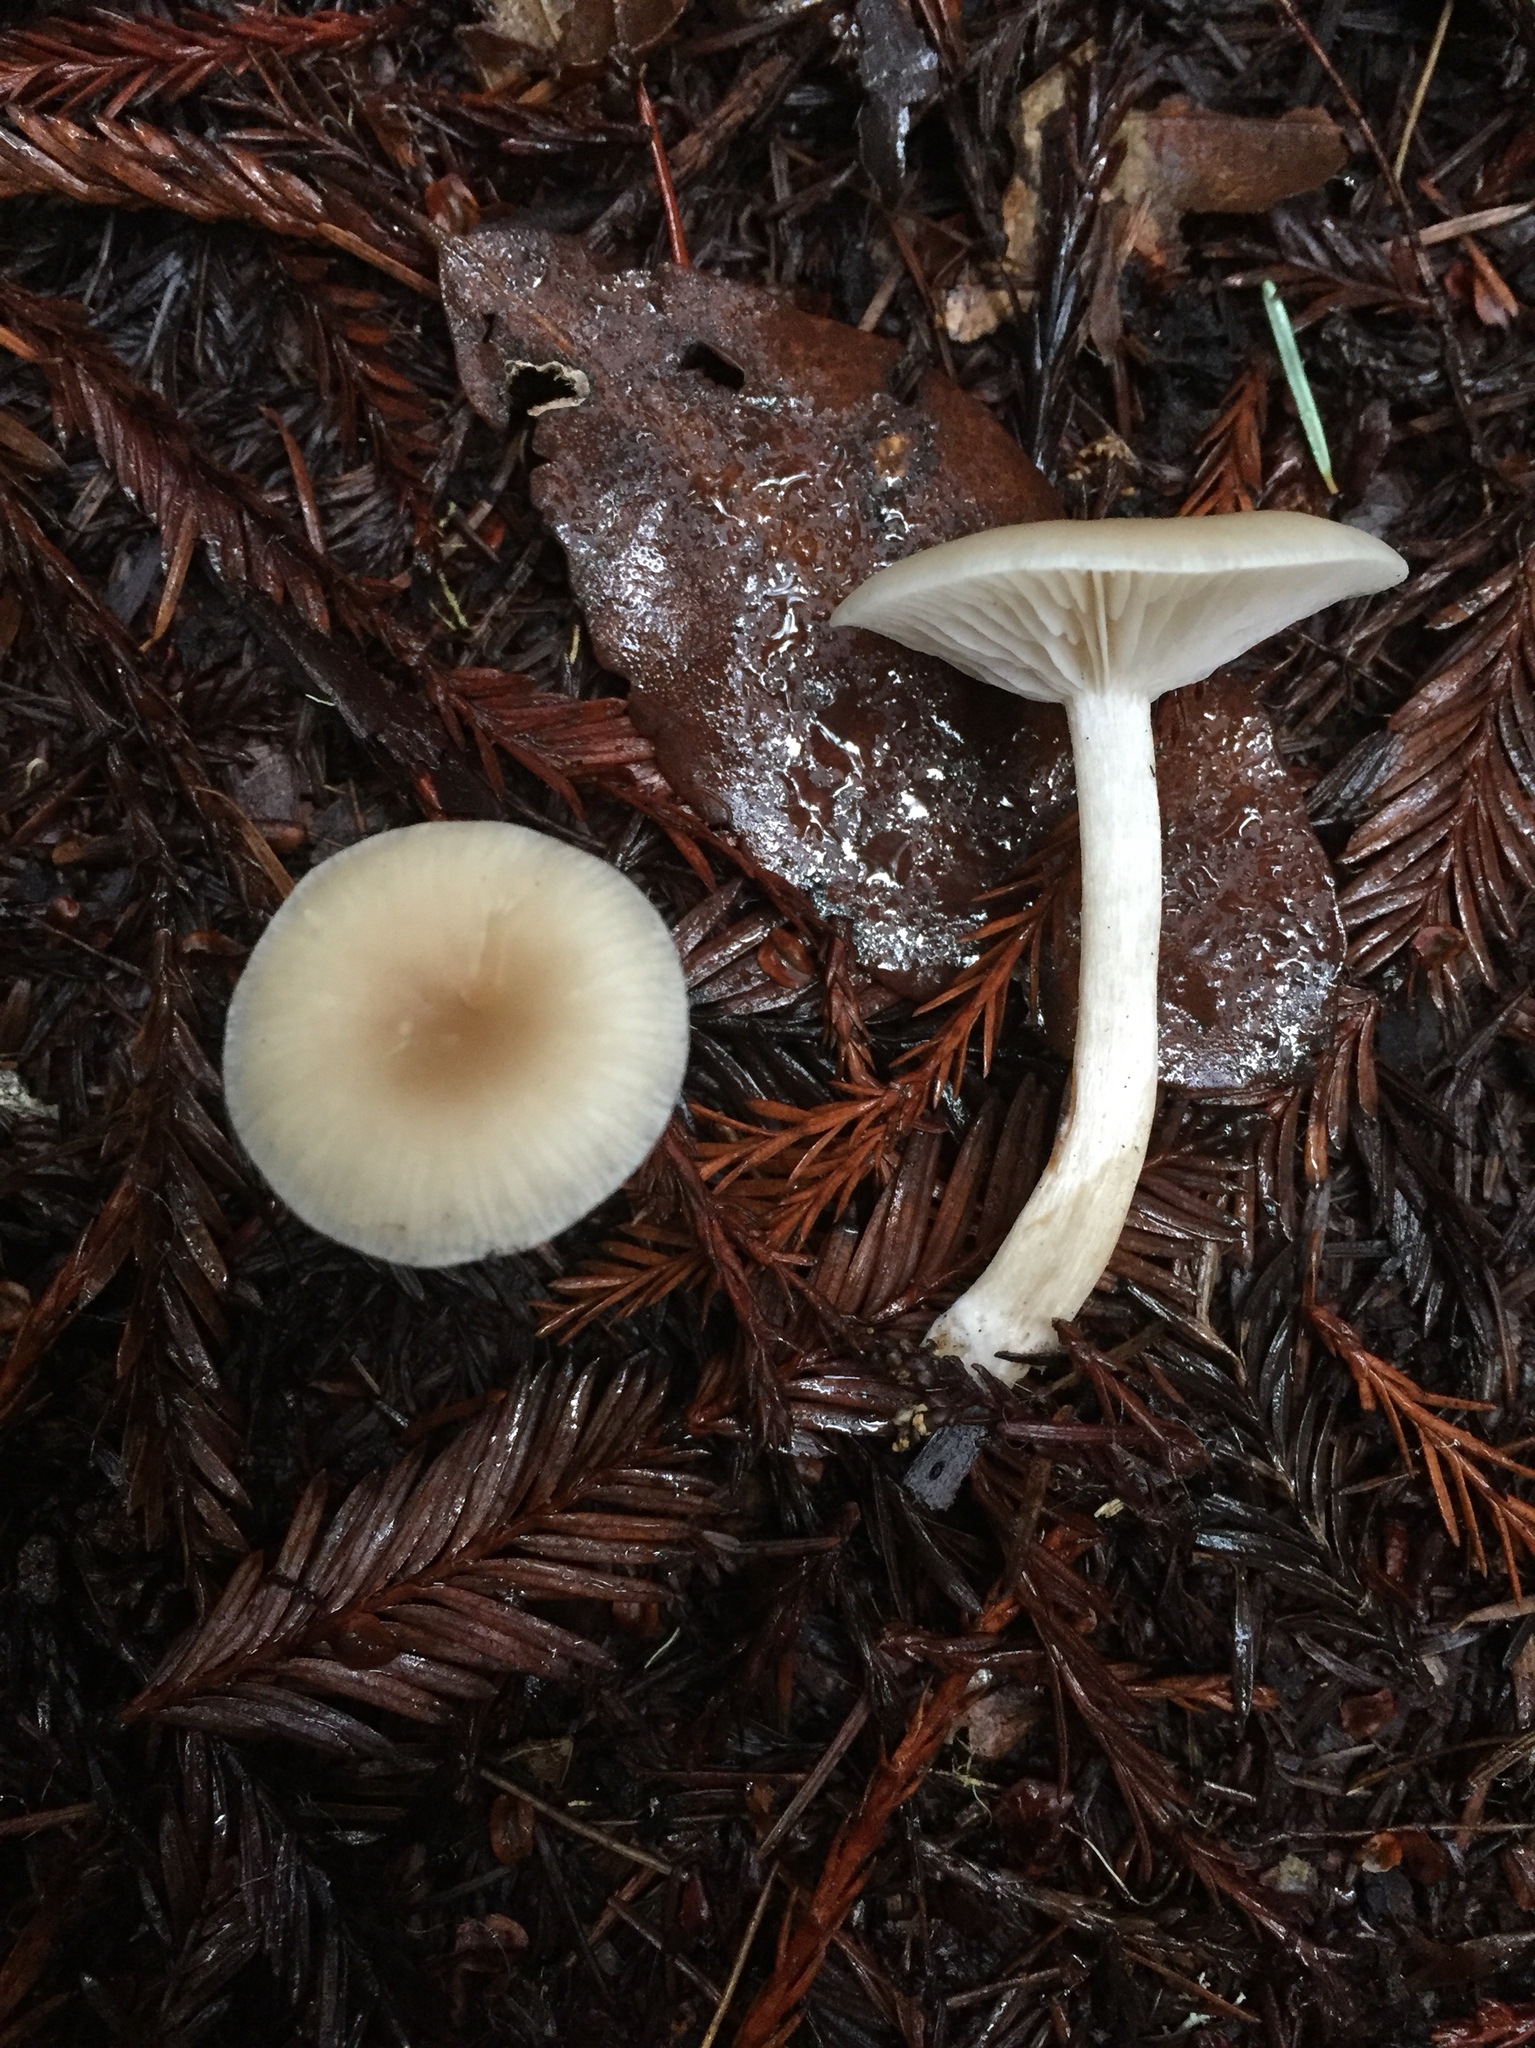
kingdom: Fungi
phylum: Basidiomycota
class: Agaricomycetes
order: Agaricales
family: Tricholomataceae
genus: Clitocybe
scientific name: Clitocybe fragrans
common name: Fragrant funnel
